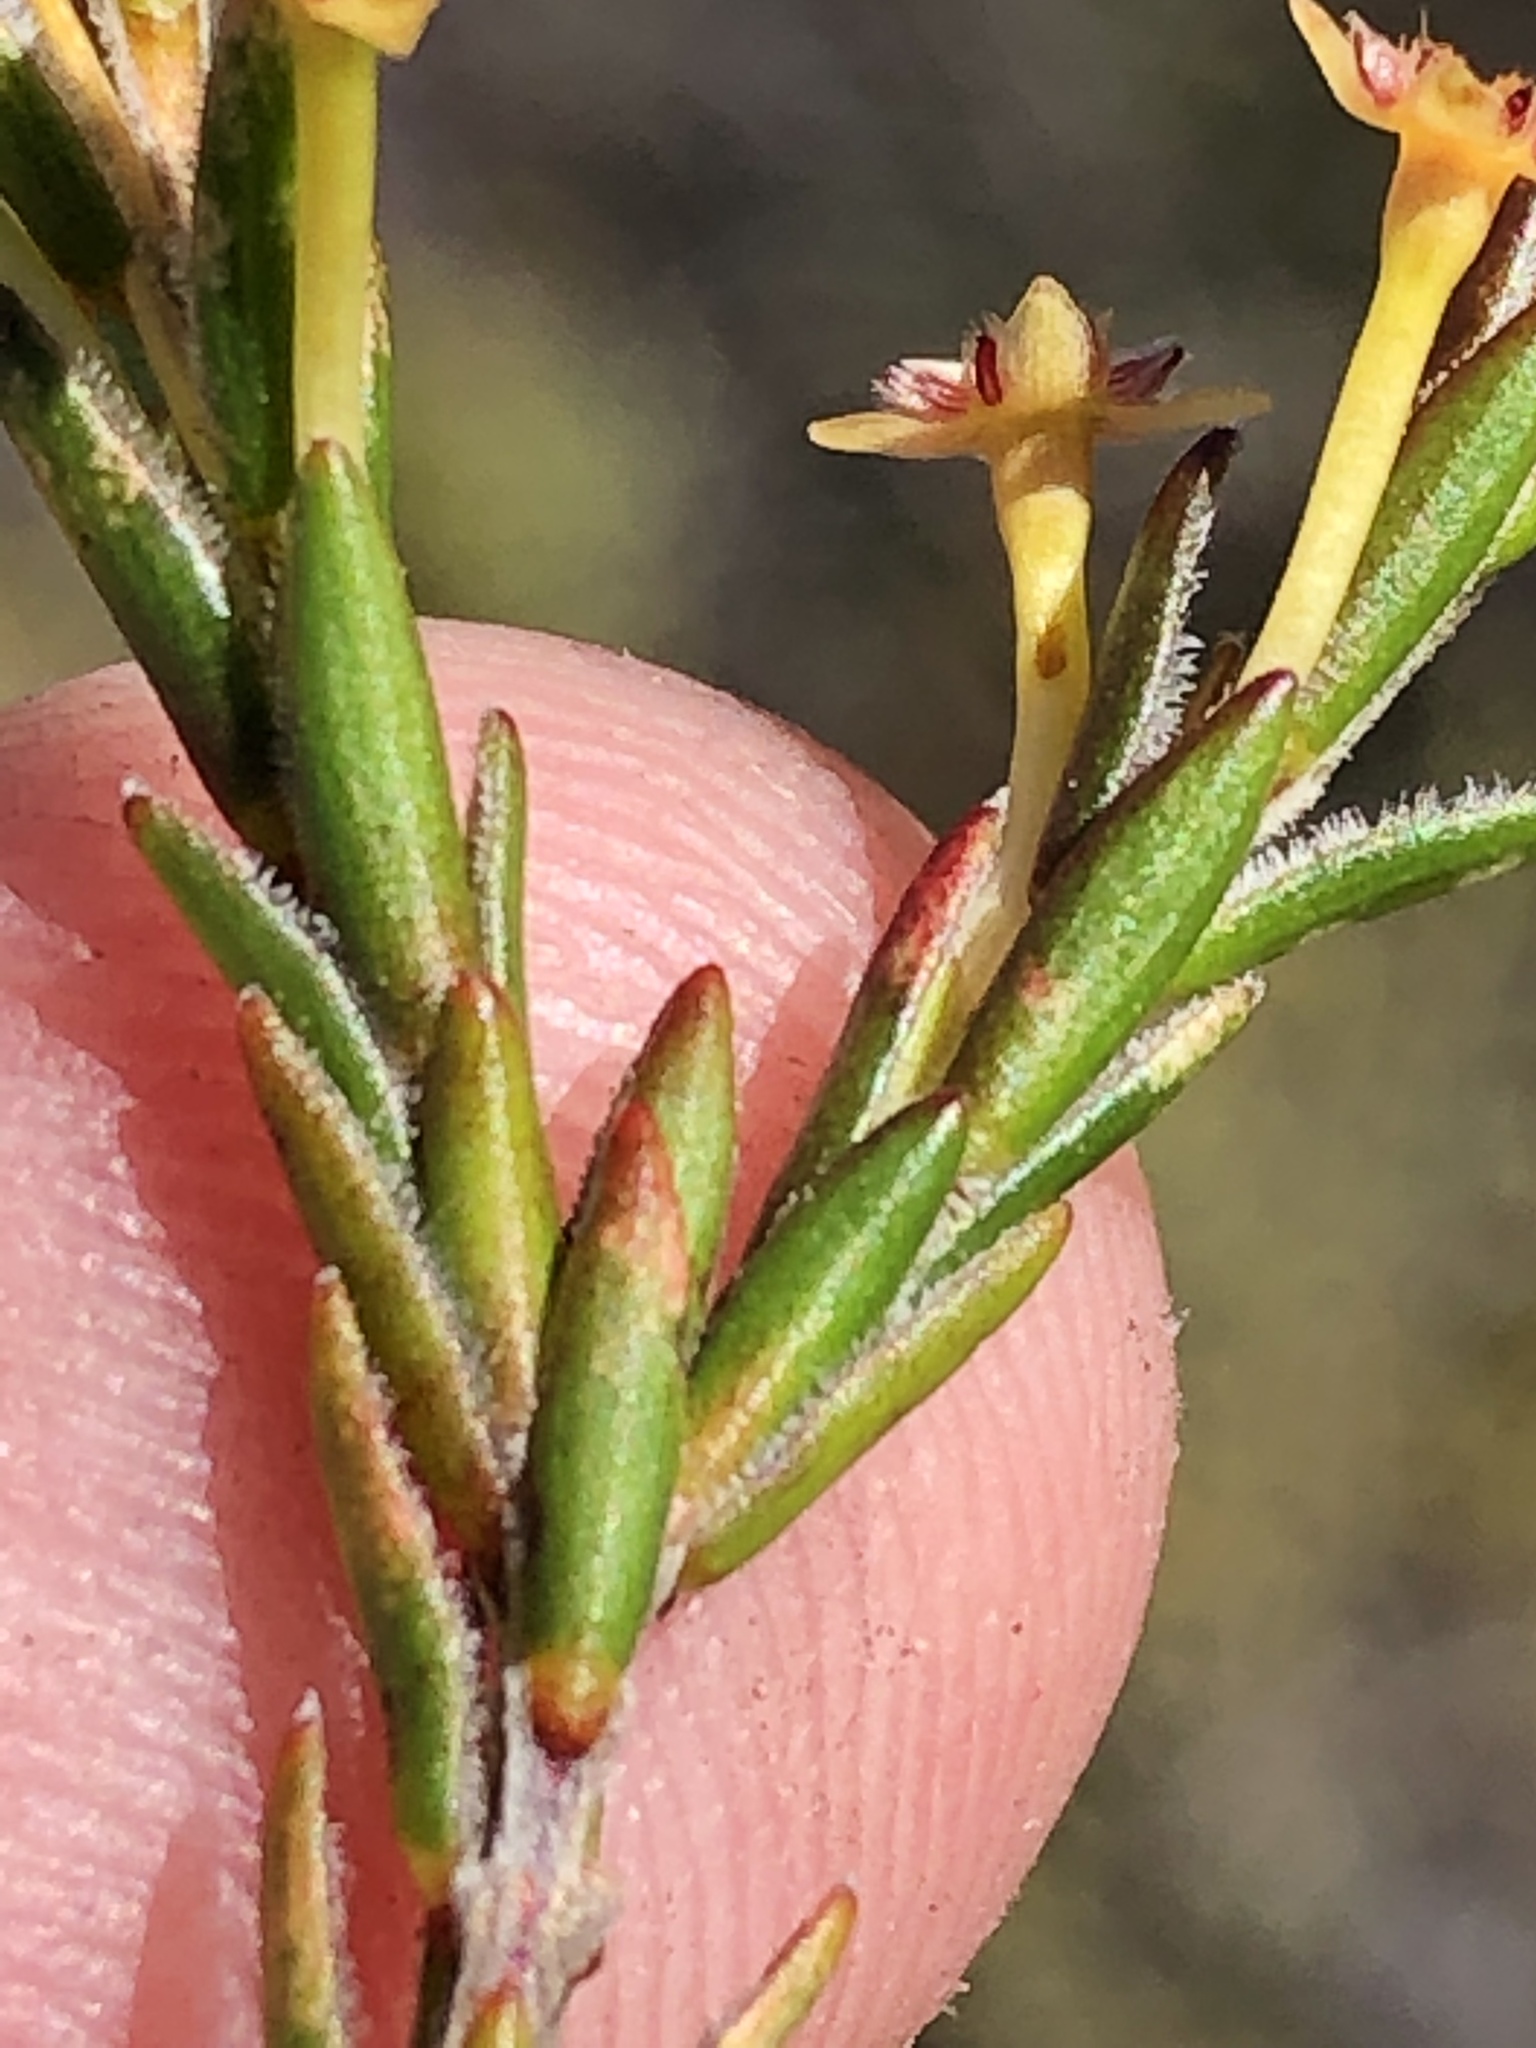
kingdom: Plantae
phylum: Tracheophyta
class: Magnoliopsida
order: Malvales
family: Thymelaeaceae
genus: Struthiola
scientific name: Struthiola parviflora
